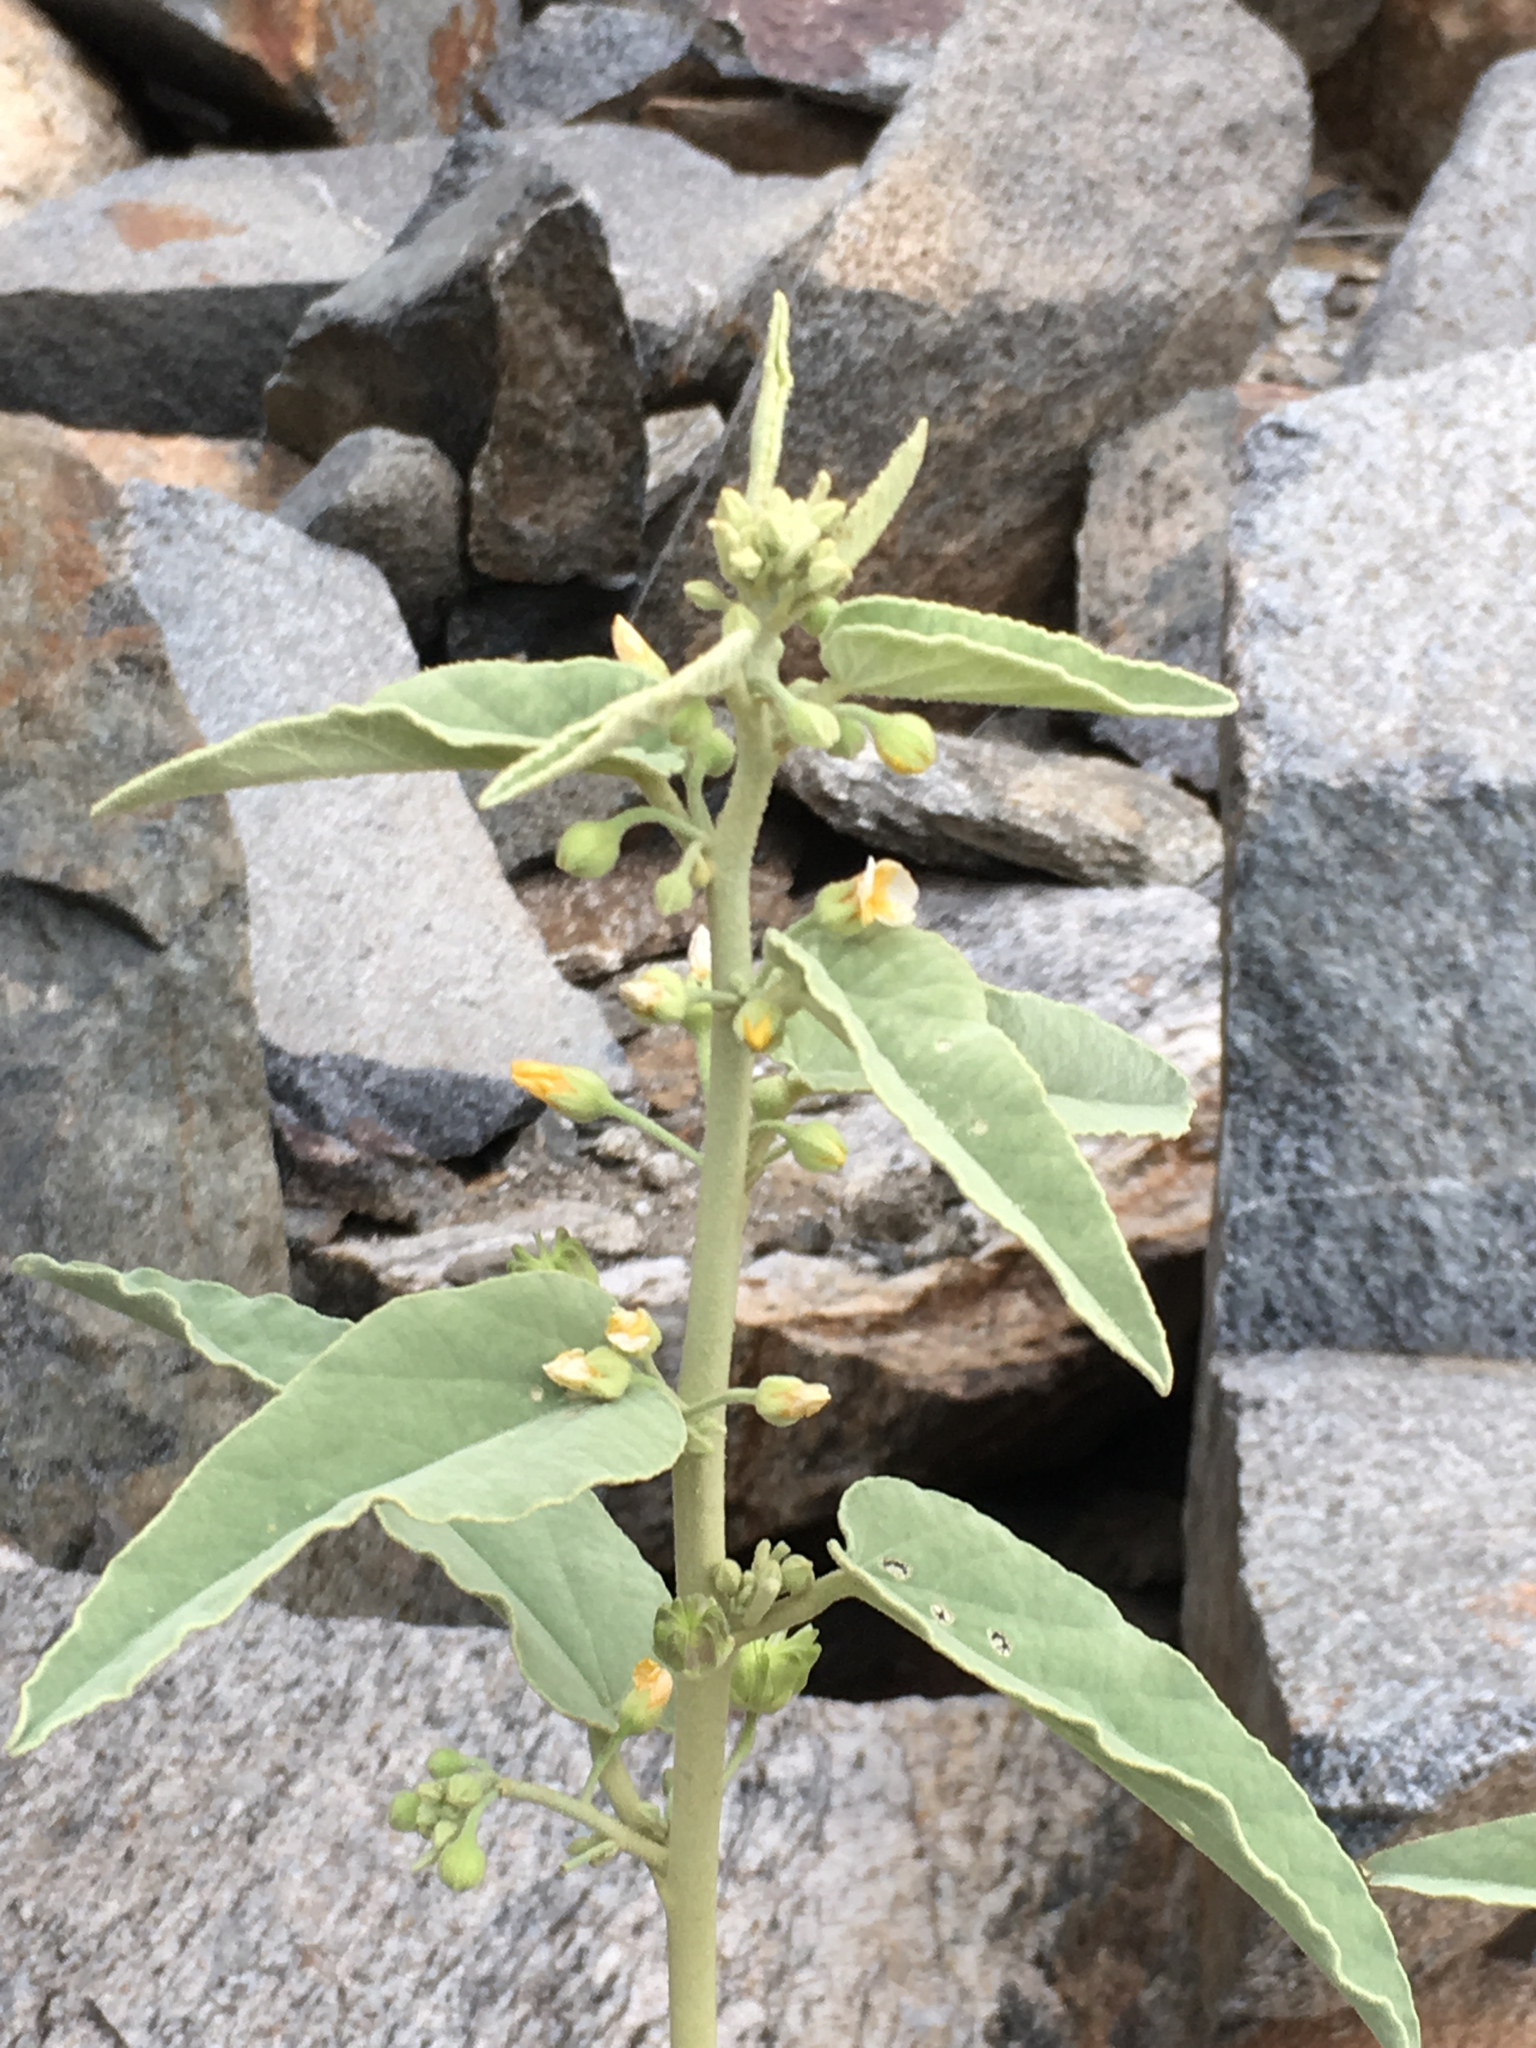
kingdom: Plantae
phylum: Tracheophyta
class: Magnoliopsida
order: Malvales
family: Malvaceae
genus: Horsfordia
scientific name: Horsfordia newberryi
